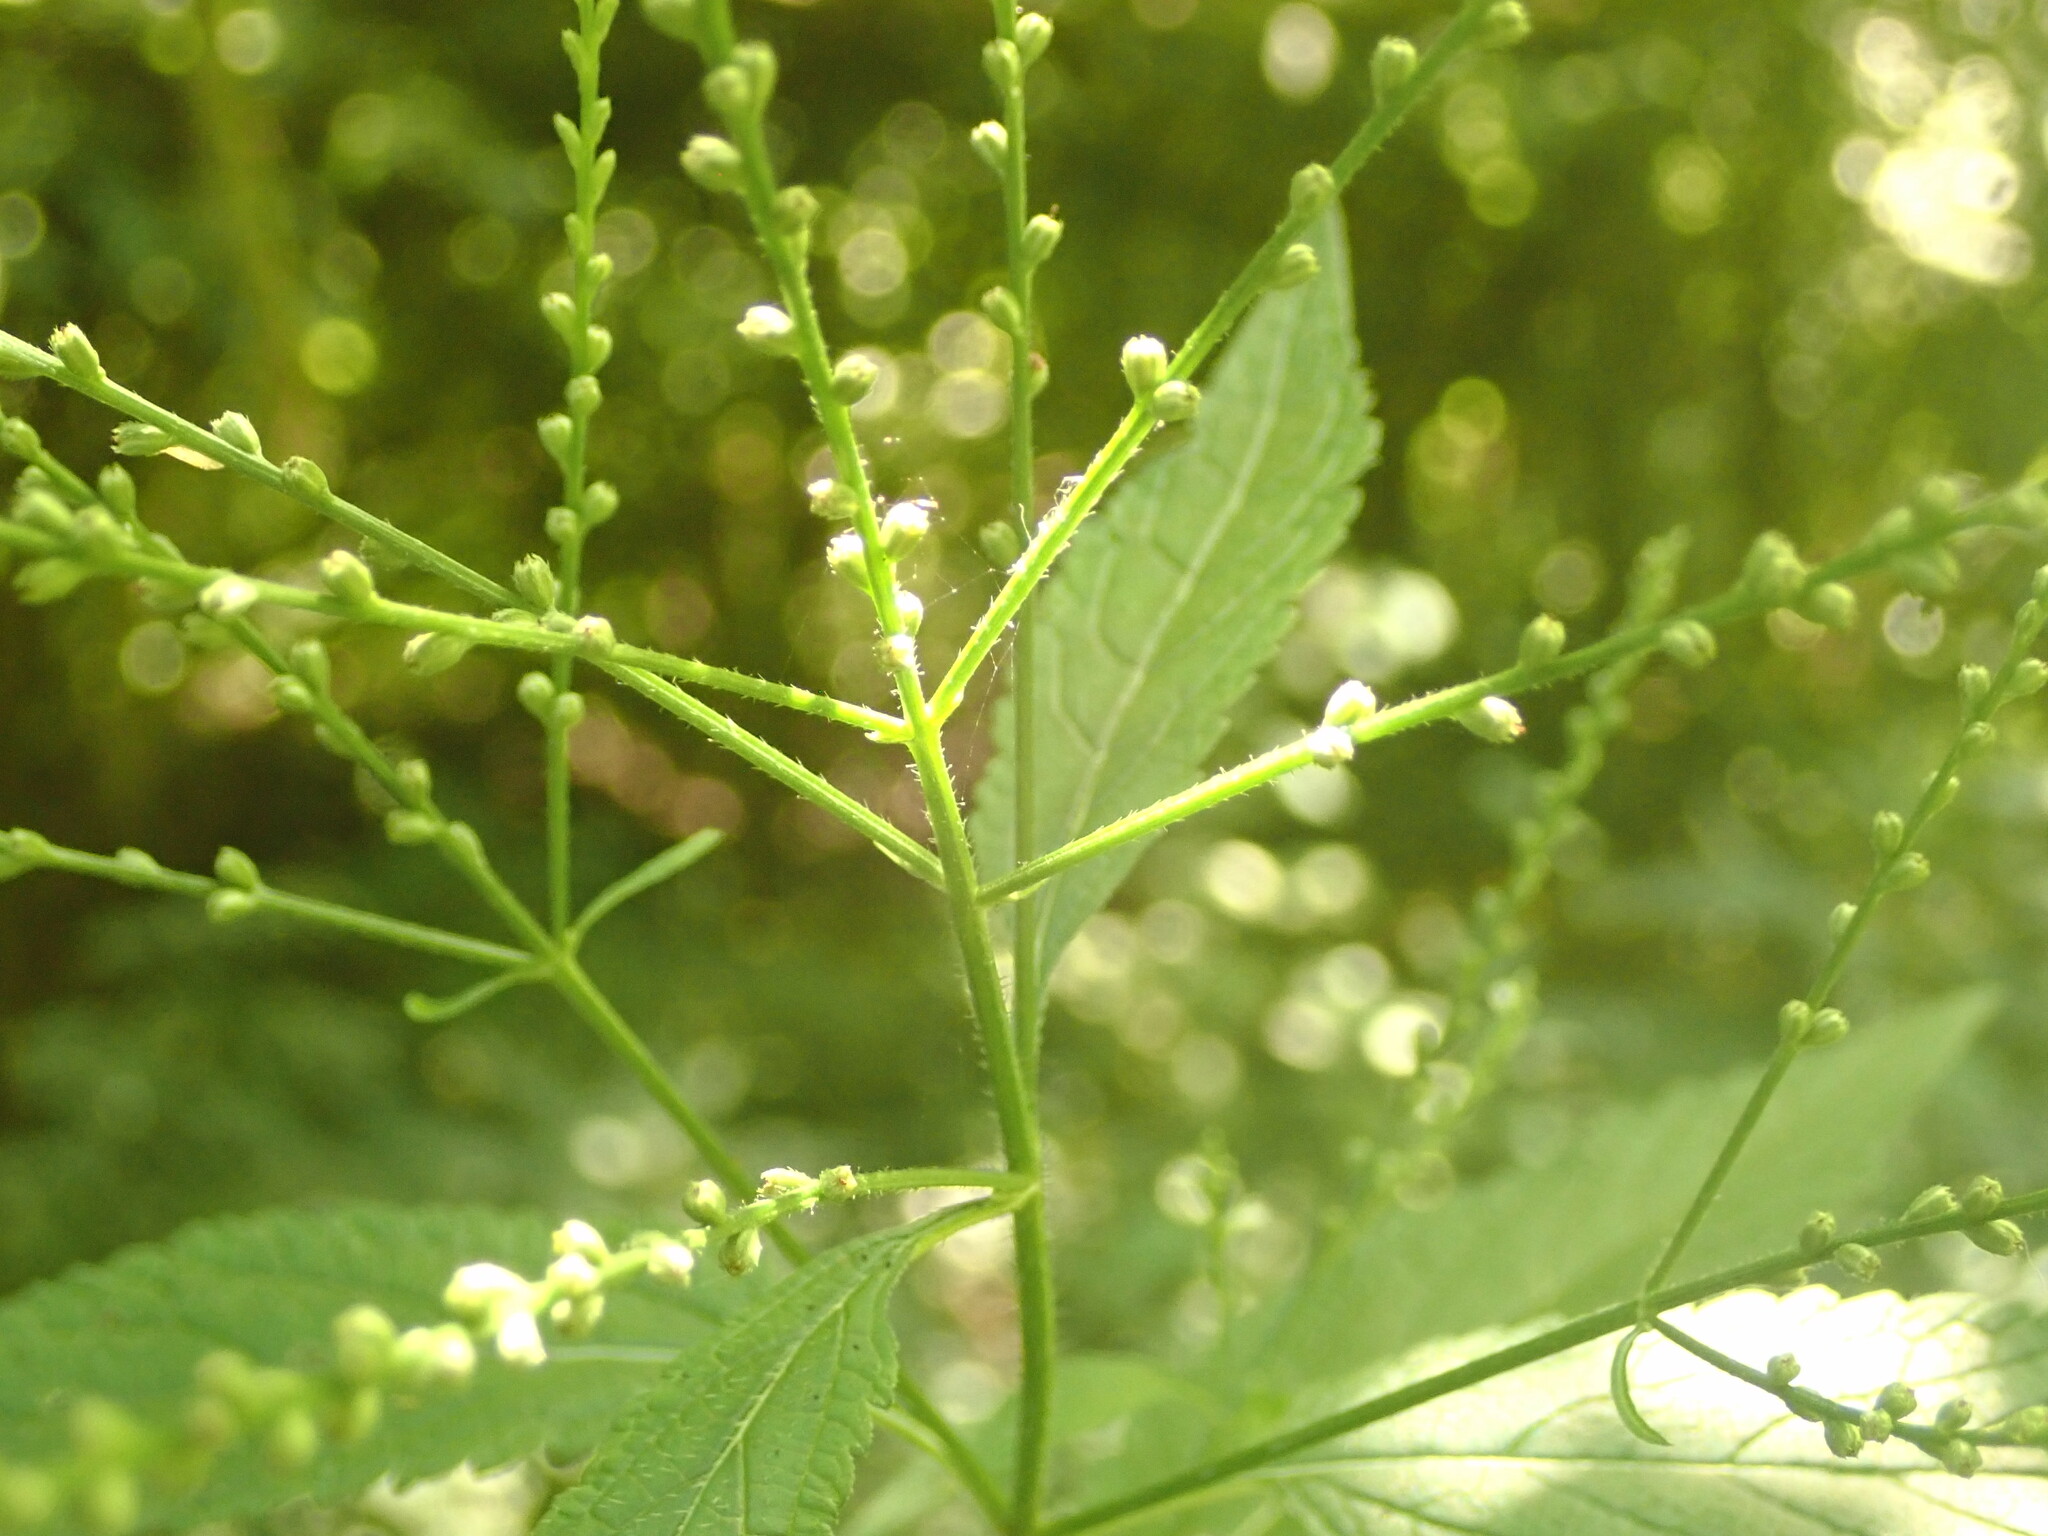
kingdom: Plantae
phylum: Tracheophyta
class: Magnoliopsida
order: Lamiales
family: Verbenaceae
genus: Verbena
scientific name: Verbena urticifolia
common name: Nettle-leaved vervain
